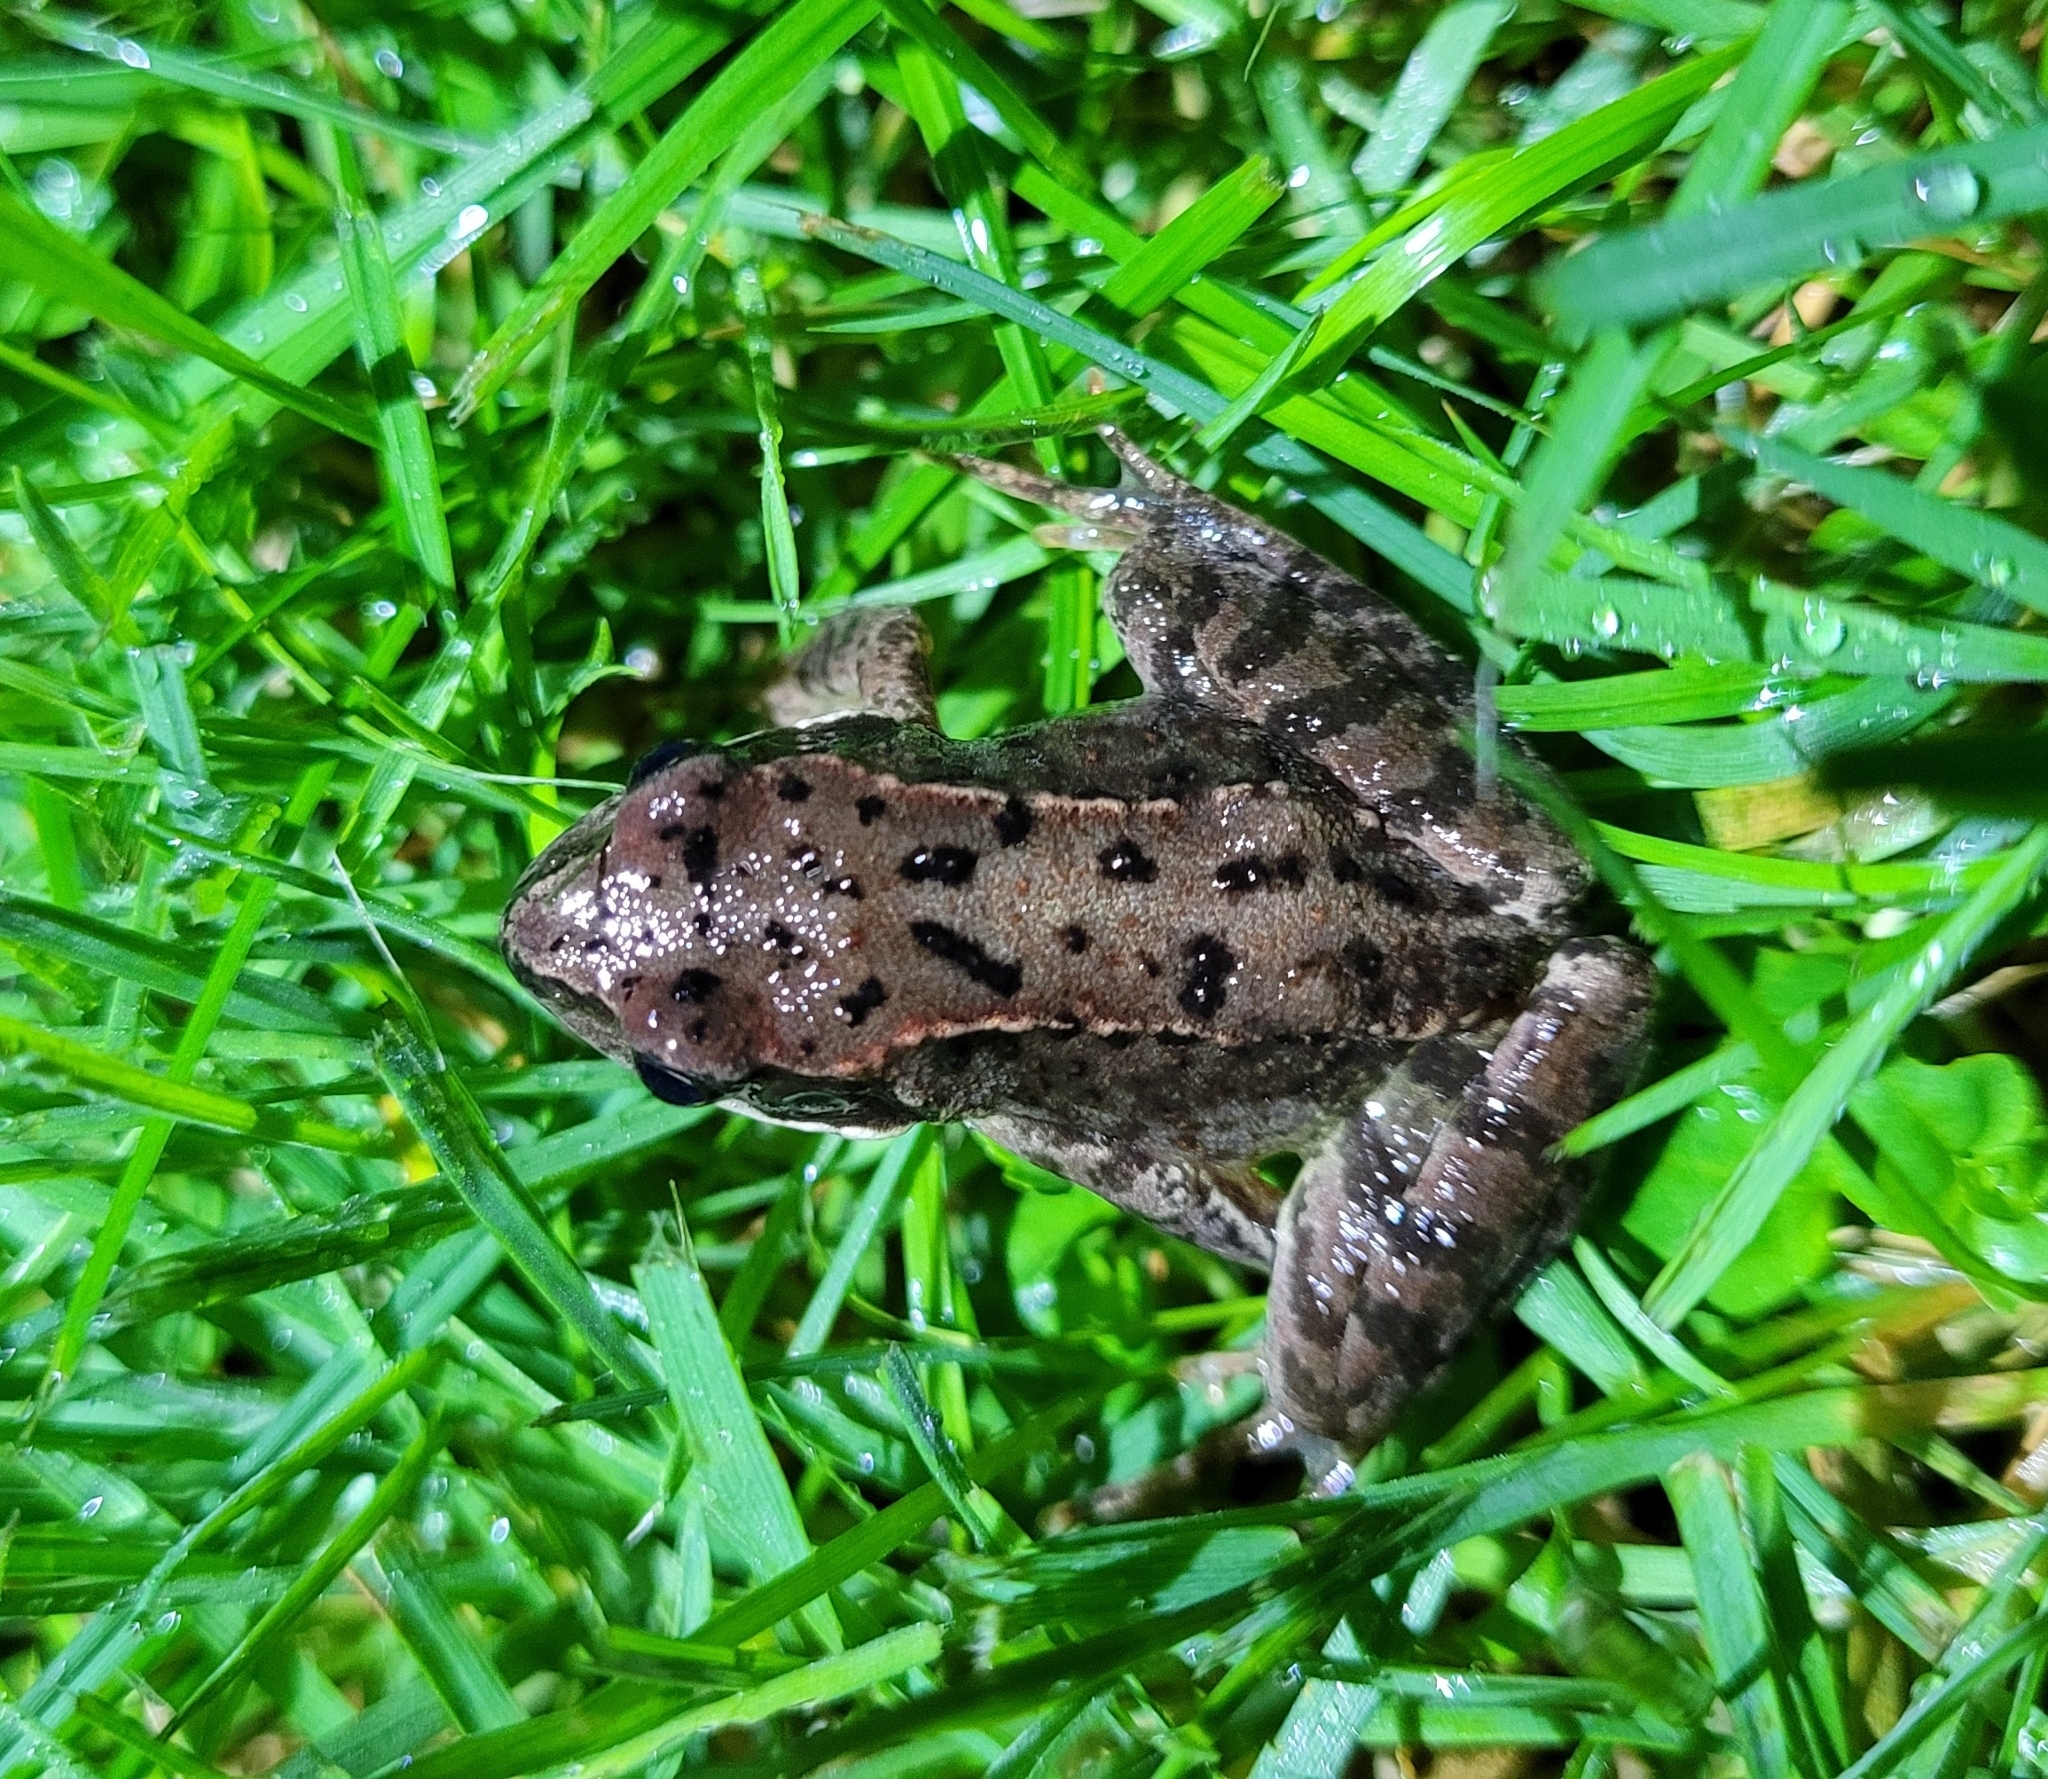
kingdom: Animalia
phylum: Chordata
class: Amphibia
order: Anura
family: Ranidae
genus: Rana
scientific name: Rana temporaria
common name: Common frog
